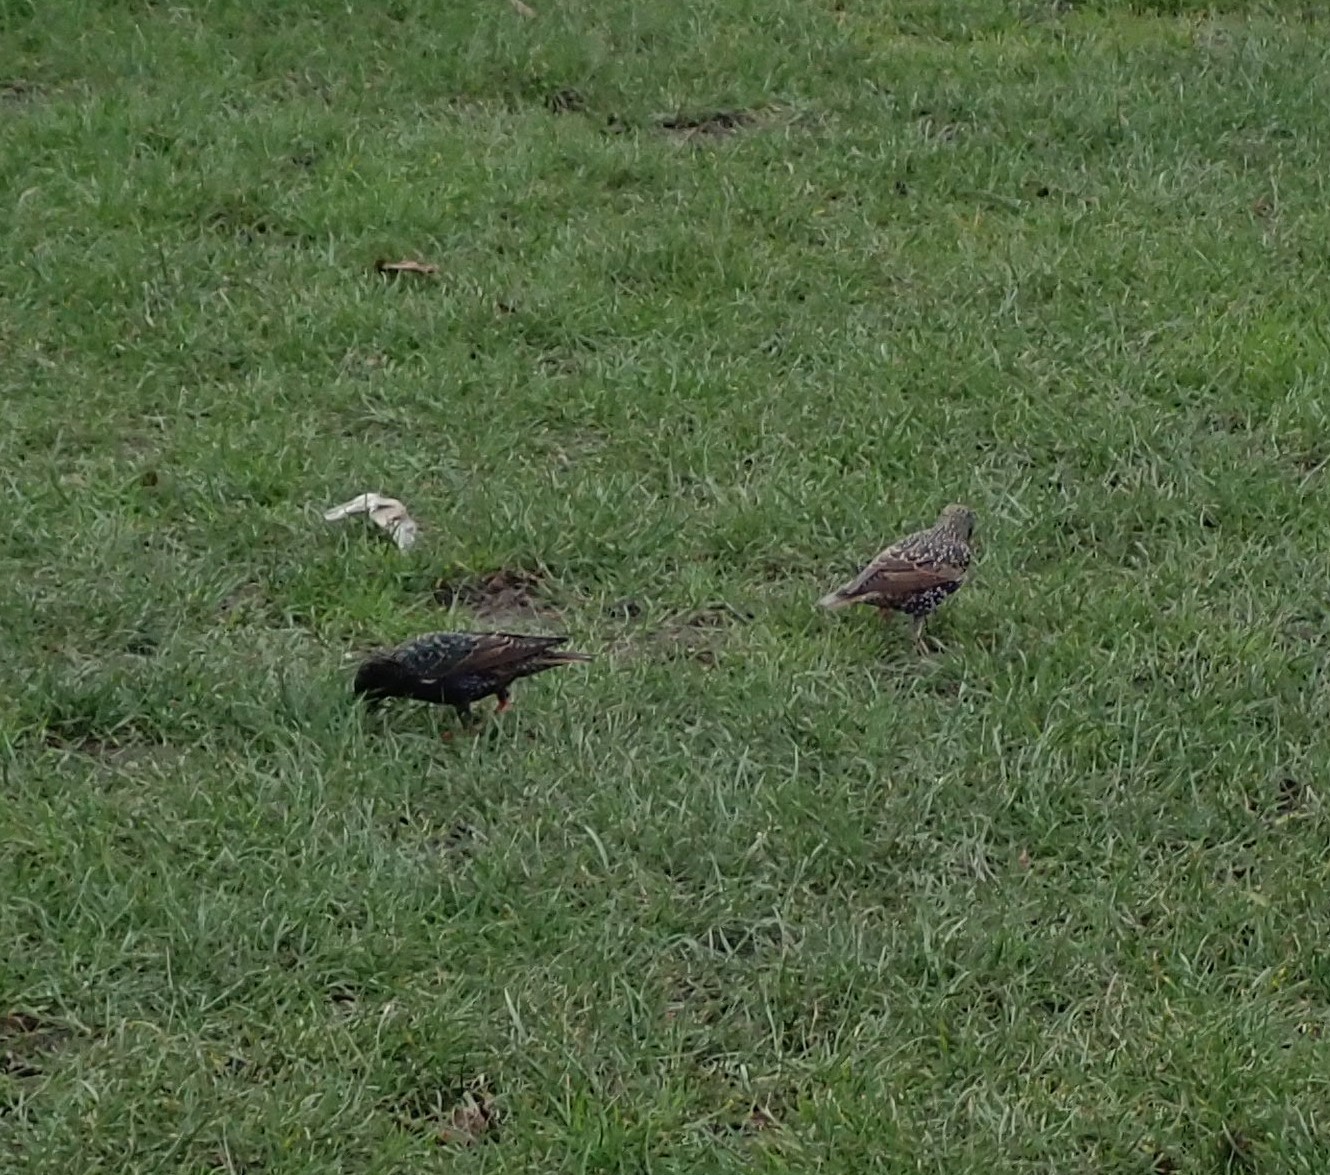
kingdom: Animalia
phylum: Chordata
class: Aves
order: Passeriformes
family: Sturnidae
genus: Sturnus
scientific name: Sturnus vulgaris
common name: Common starling
